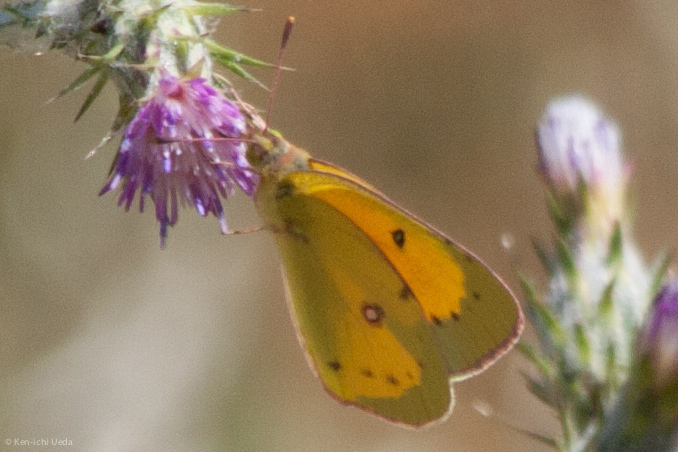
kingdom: Animalia
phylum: Arthropoda
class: Insecta
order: Lepidoptera
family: Pieridae
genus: Colias
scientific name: Colias eurytheme
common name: Alfalfa butterfly
